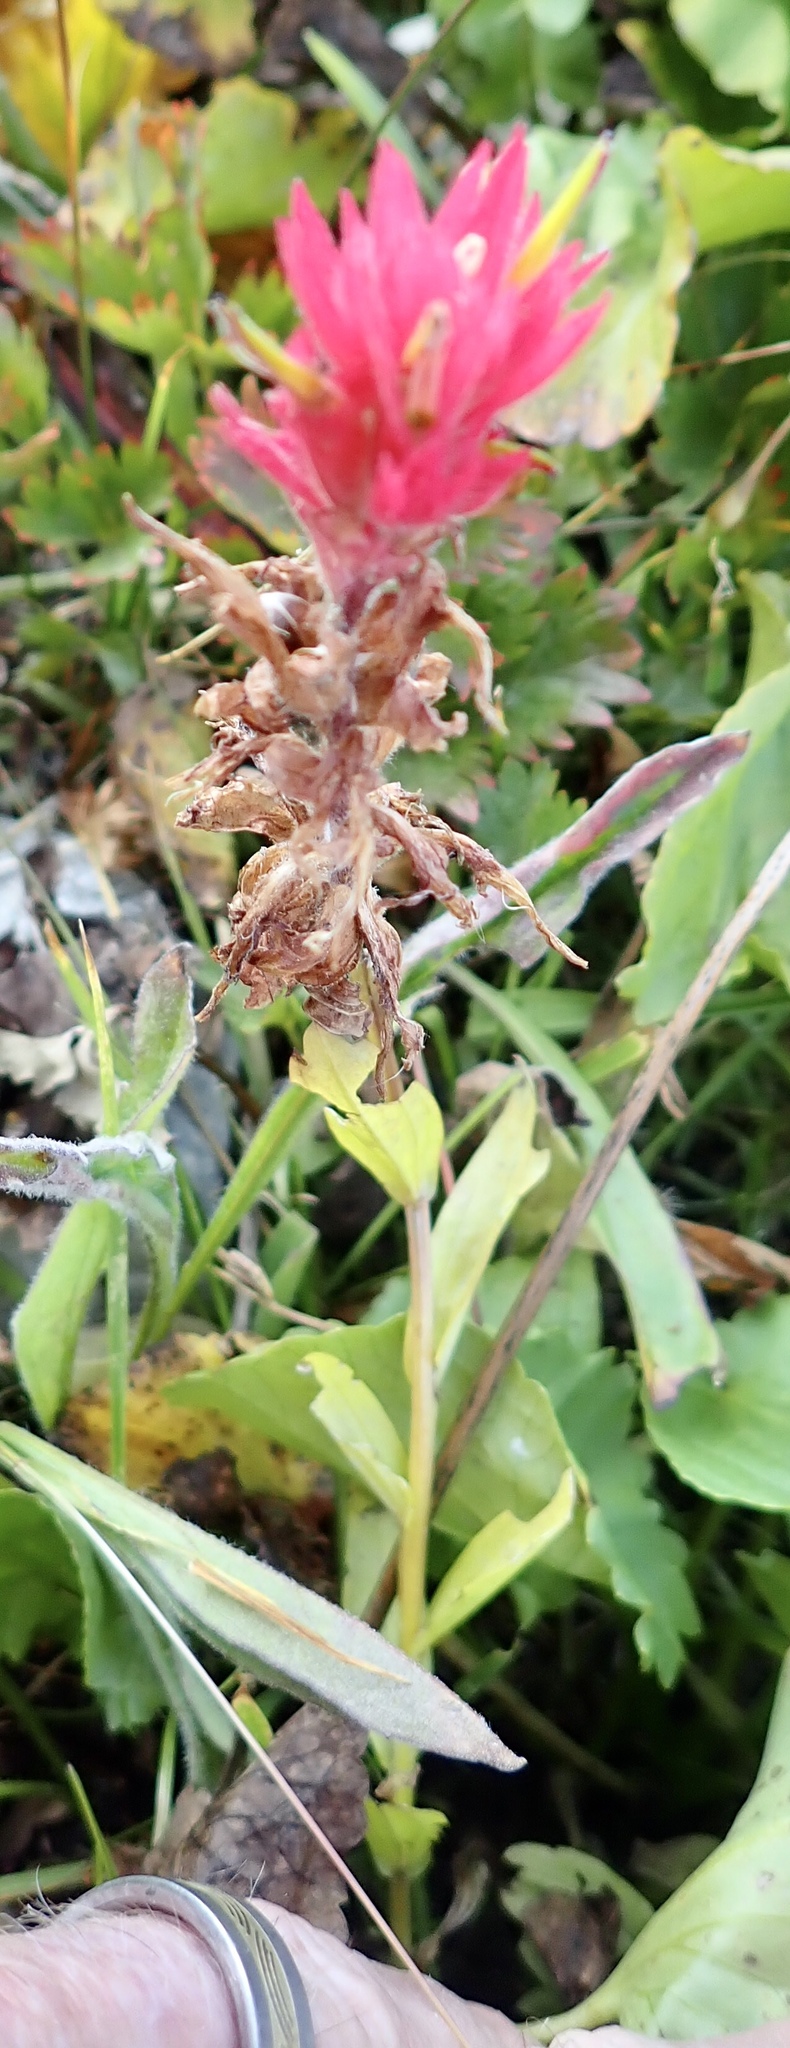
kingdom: Plantae
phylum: Tracheophyta
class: Magnoliopsida
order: Lamiales
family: Orobanchaceae
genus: Castilleja
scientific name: Castilleja miniata
